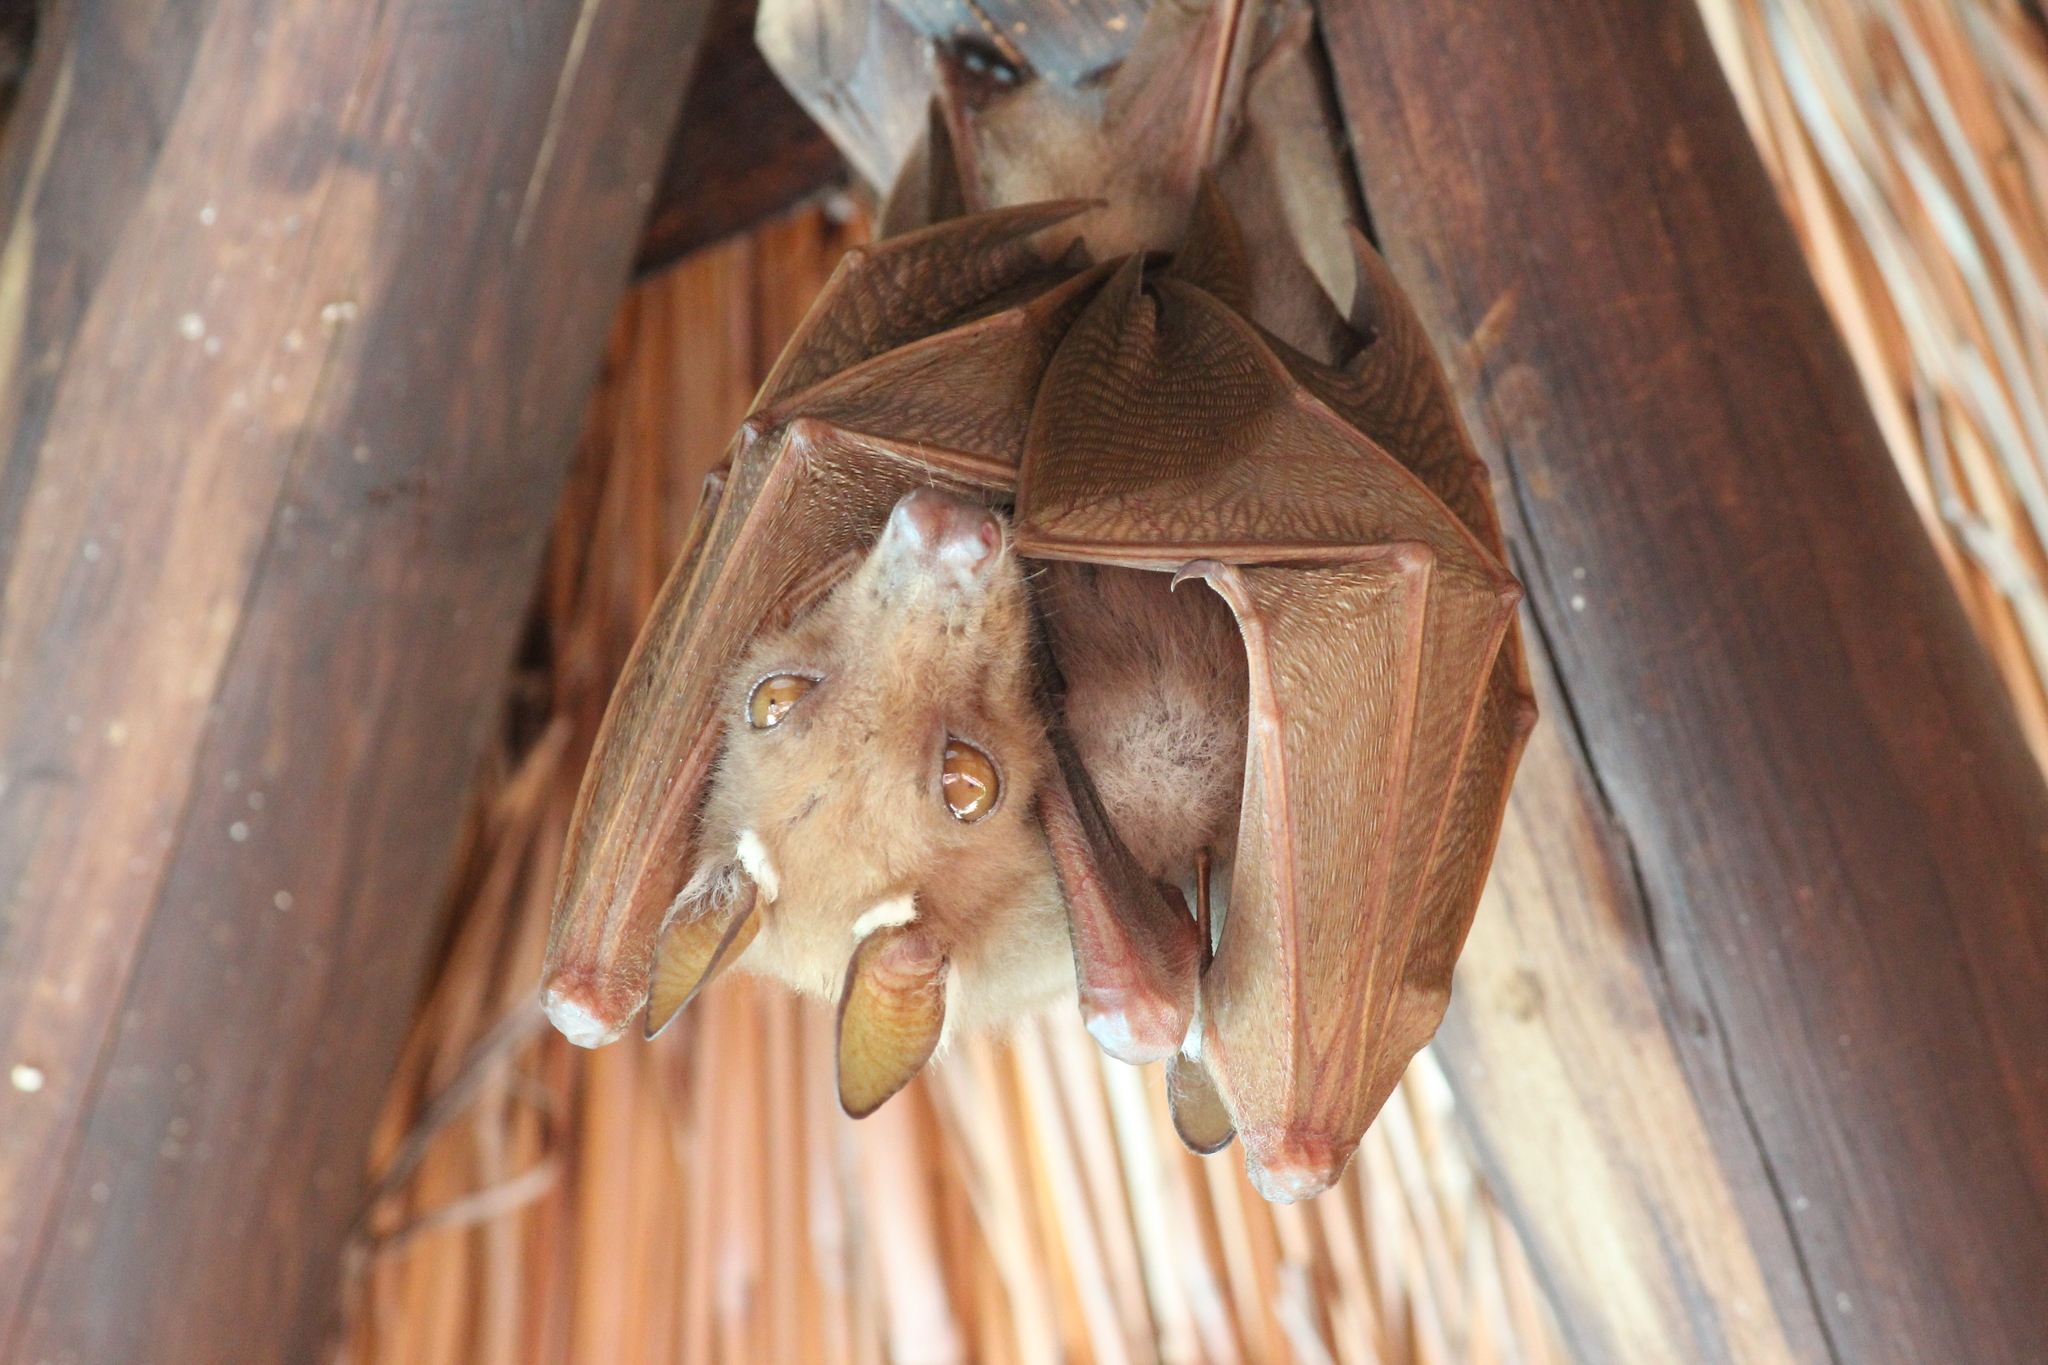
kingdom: Animalia
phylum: Chordata
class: Mammalia
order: Chiroptera
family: Pteropodidae
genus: Epomophorus
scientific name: Epomophorus wahlbergi
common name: Wahlberg's epauletted fruit bat
